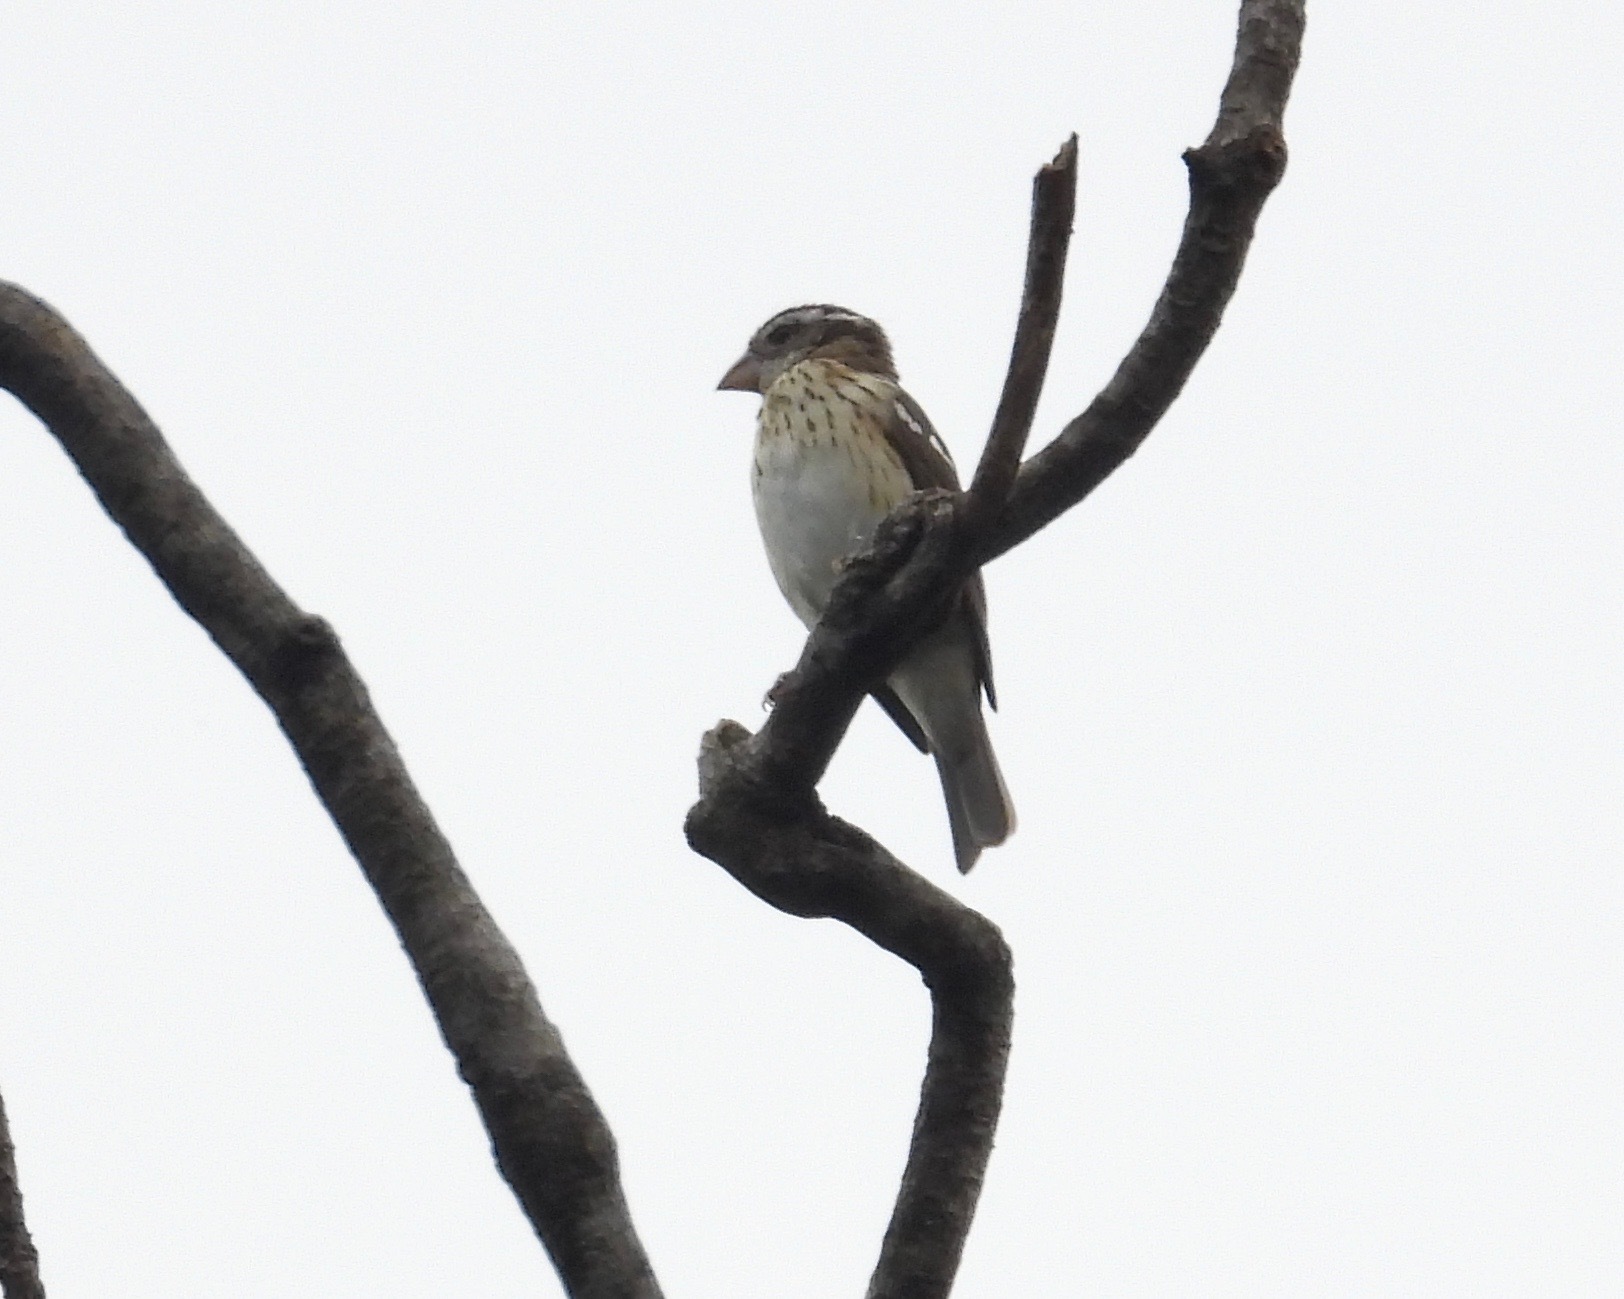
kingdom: Animalia
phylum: Chordata
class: Aves
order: Passeriformes
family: Cardinalidae
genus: Pheucticus
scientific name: Pheucticus ludovicianus
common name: Rose-breasted grosbeak
